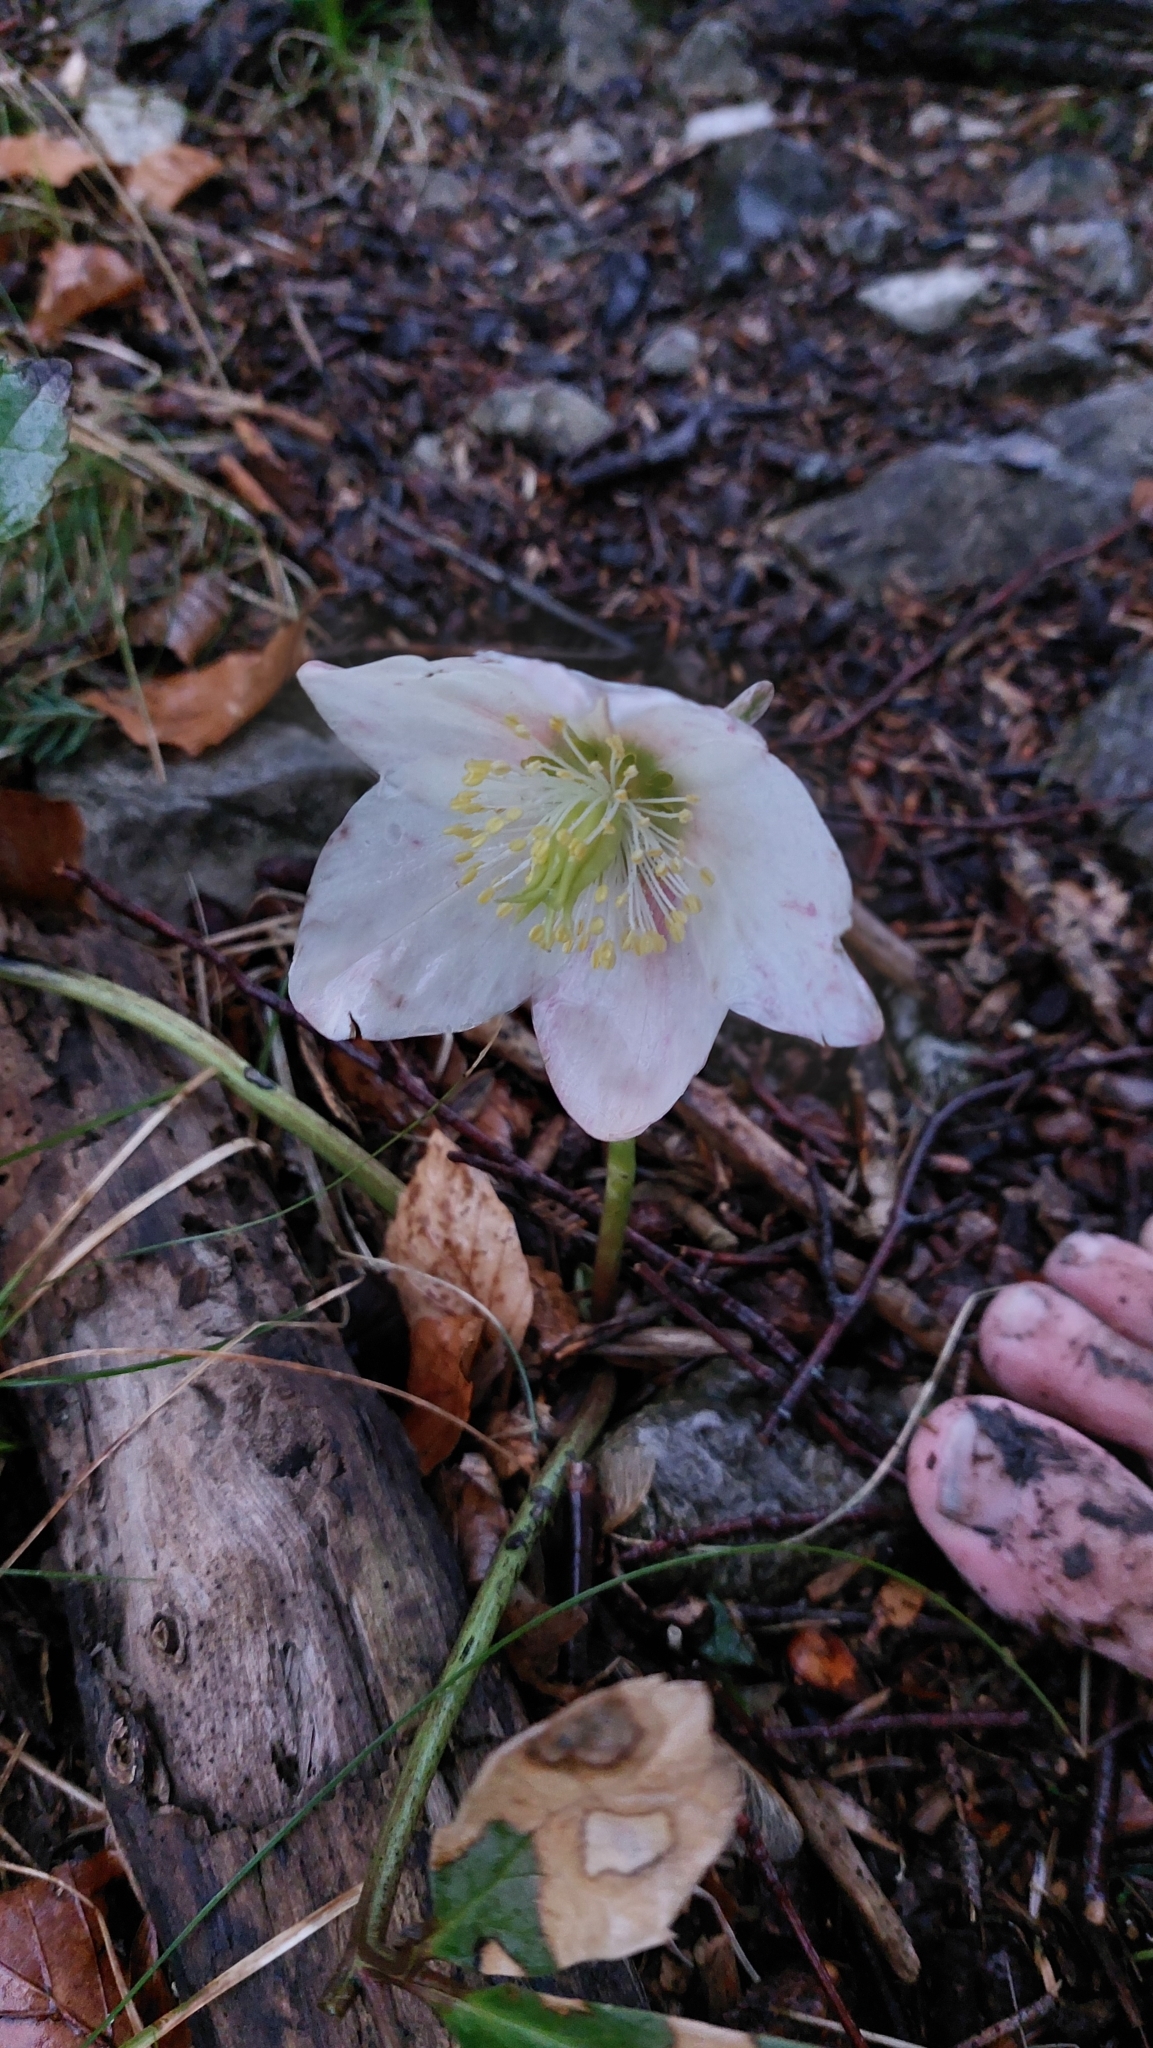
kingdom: Plantae
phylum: Tracheophyta
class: Magnoliopsida
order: Ranunculales
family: Ranunculaceae
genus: Helleborus
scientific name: Helleborus niger
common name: Black hellebore
